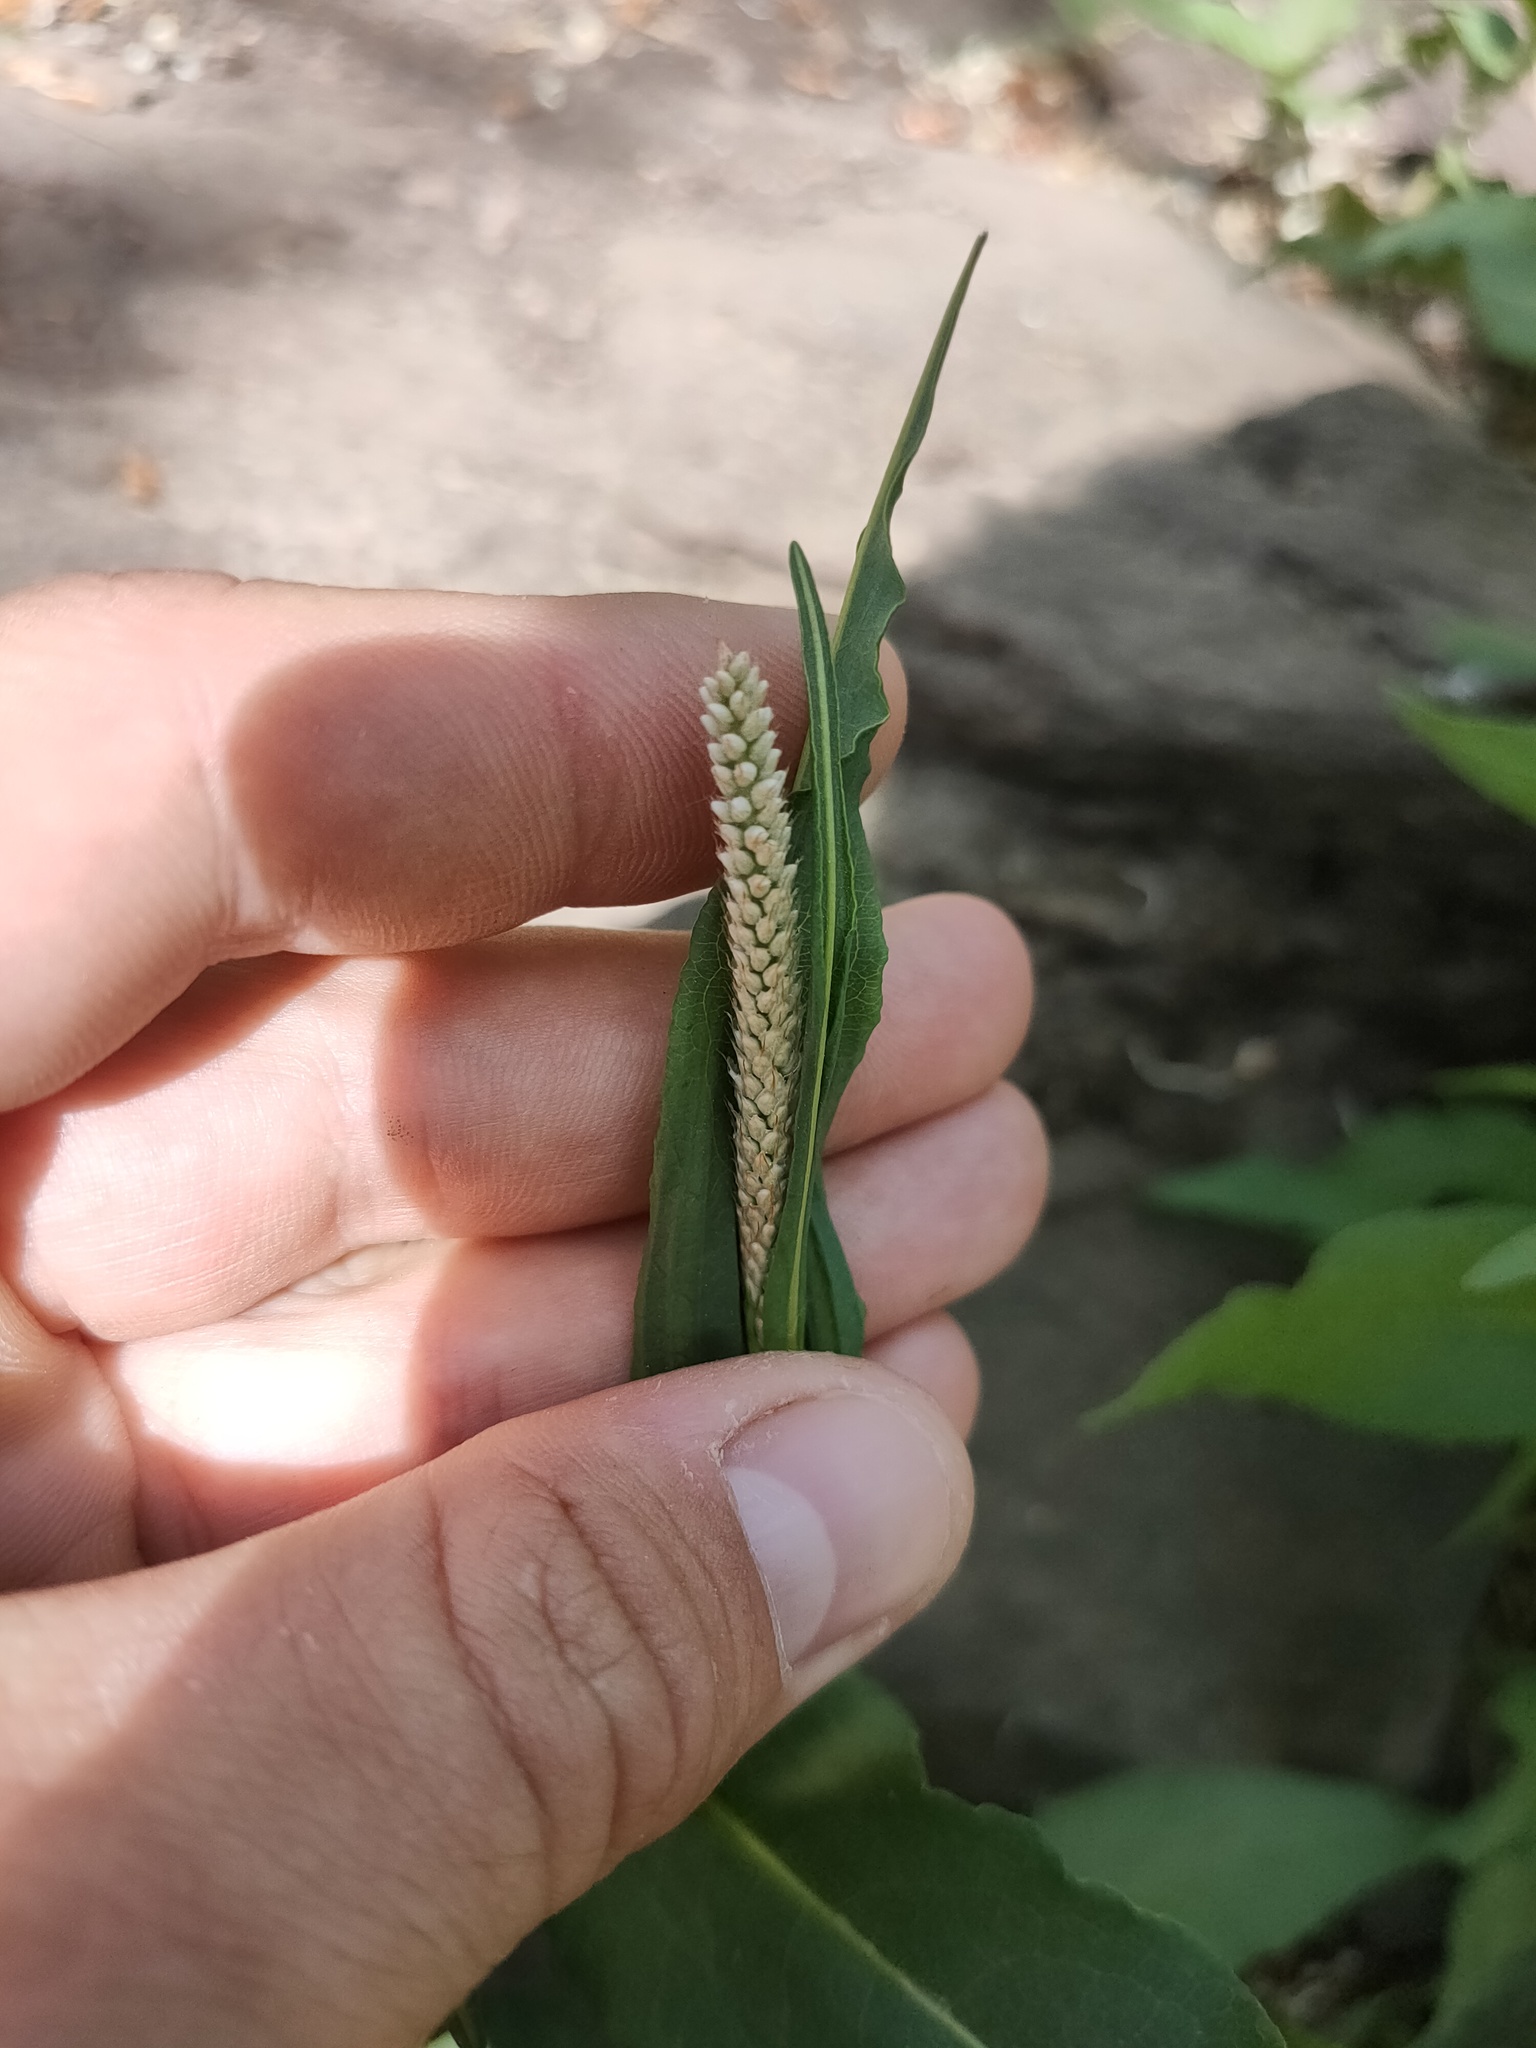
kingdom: Plantae
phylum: Tracheophyta
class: Magnoliopsida
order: Caryophyllales
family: Polygonaceae
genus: Persicaria
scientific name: Persicaria lapathifolia
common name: Curlytop knotweed
